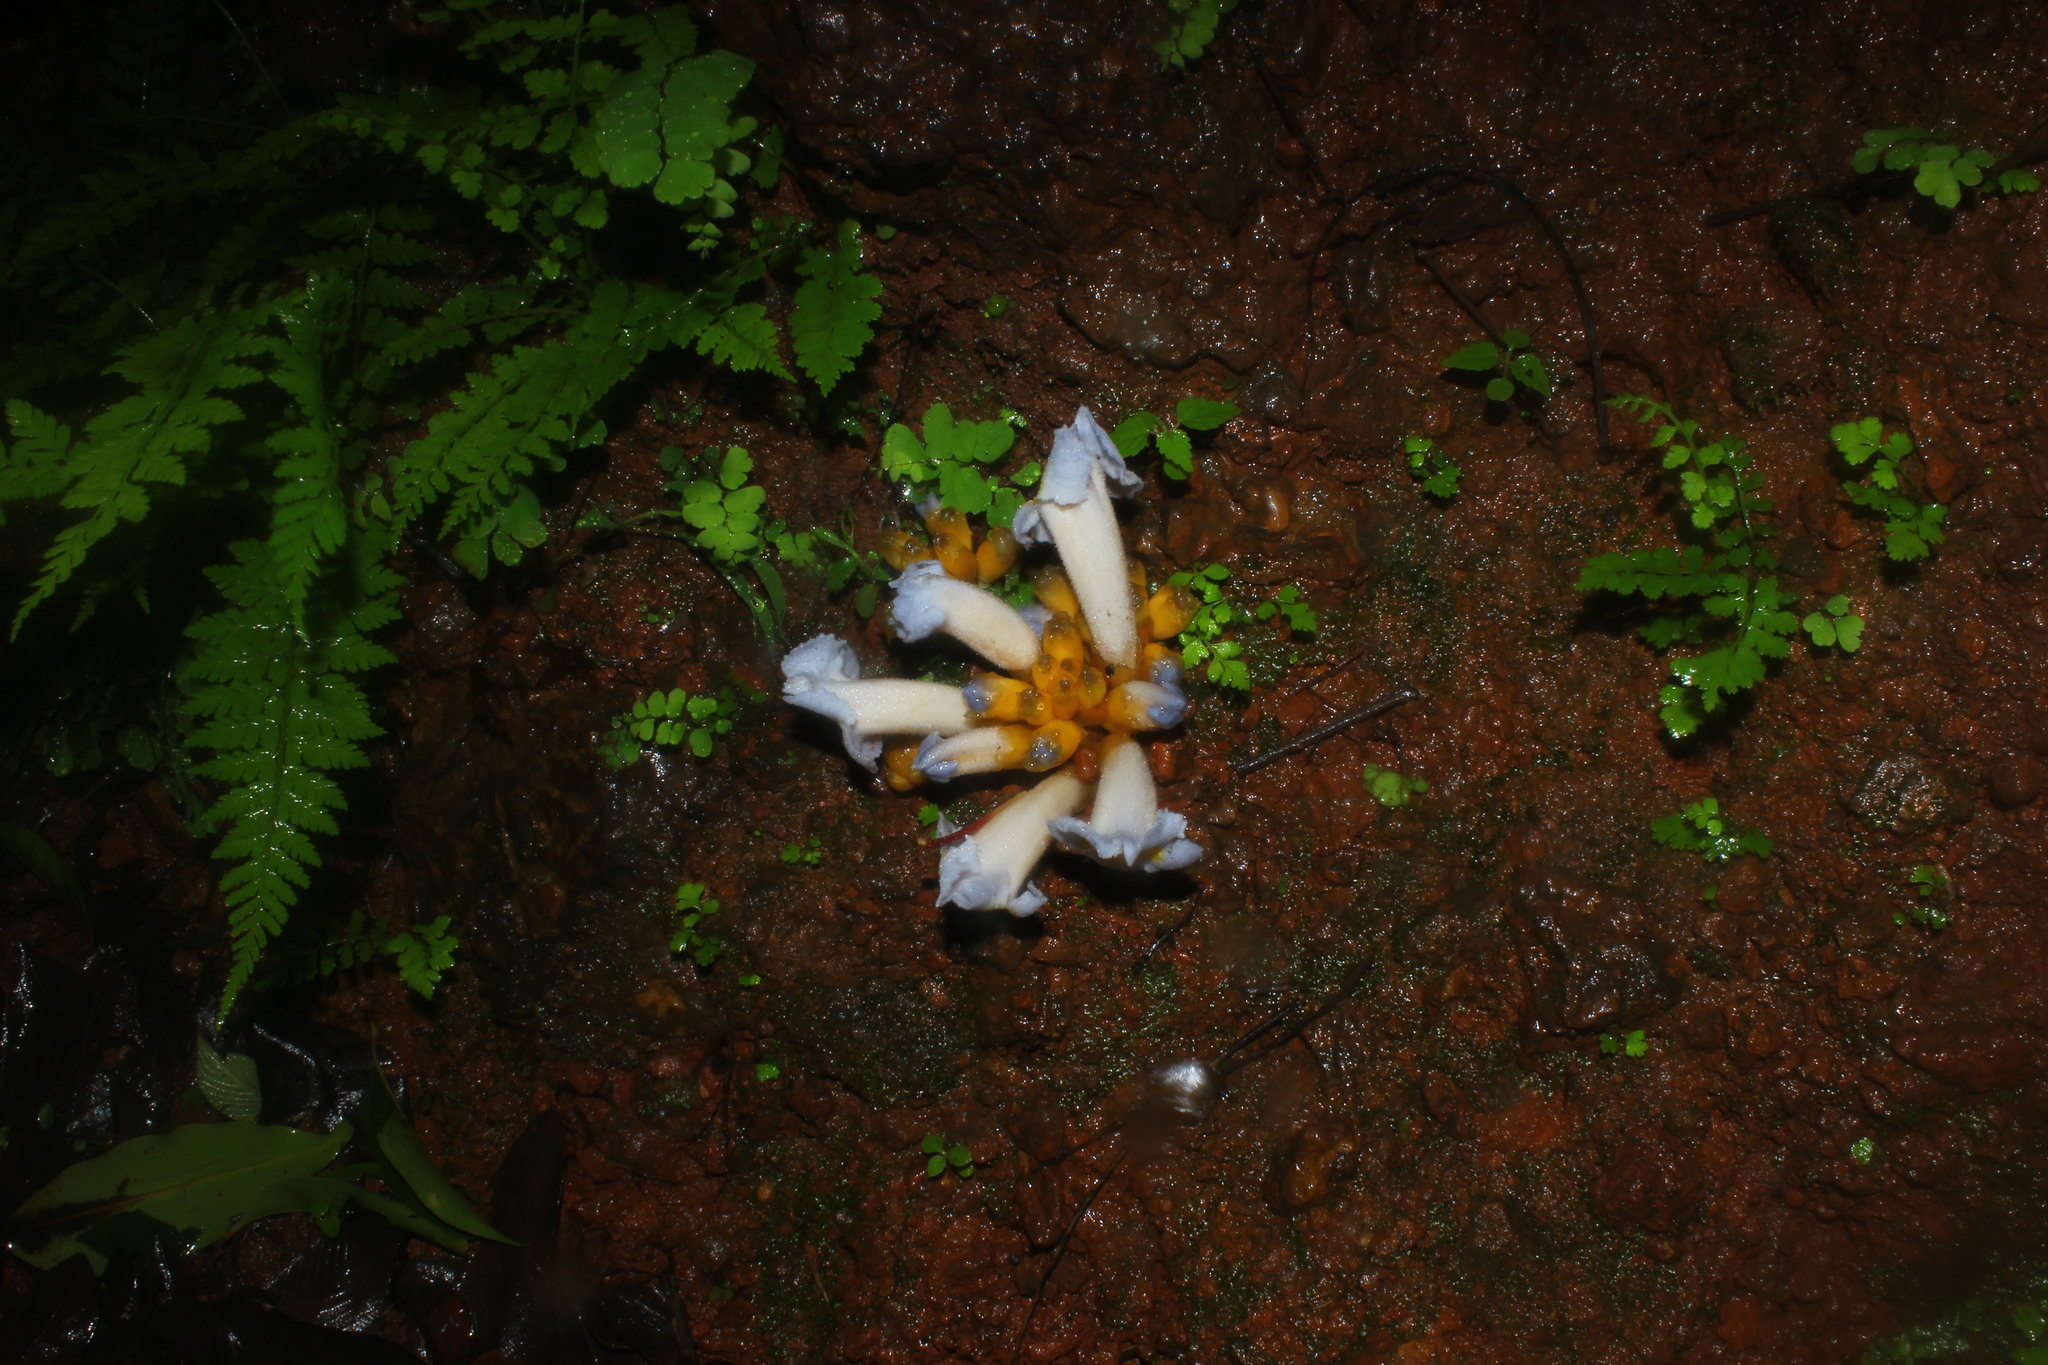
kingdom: Plantae
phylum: Tracheophyta
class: Magnoliopsida
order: Lamiales
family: Orobanchaceae
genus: Christisonia
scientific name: Christisonia calcarata
